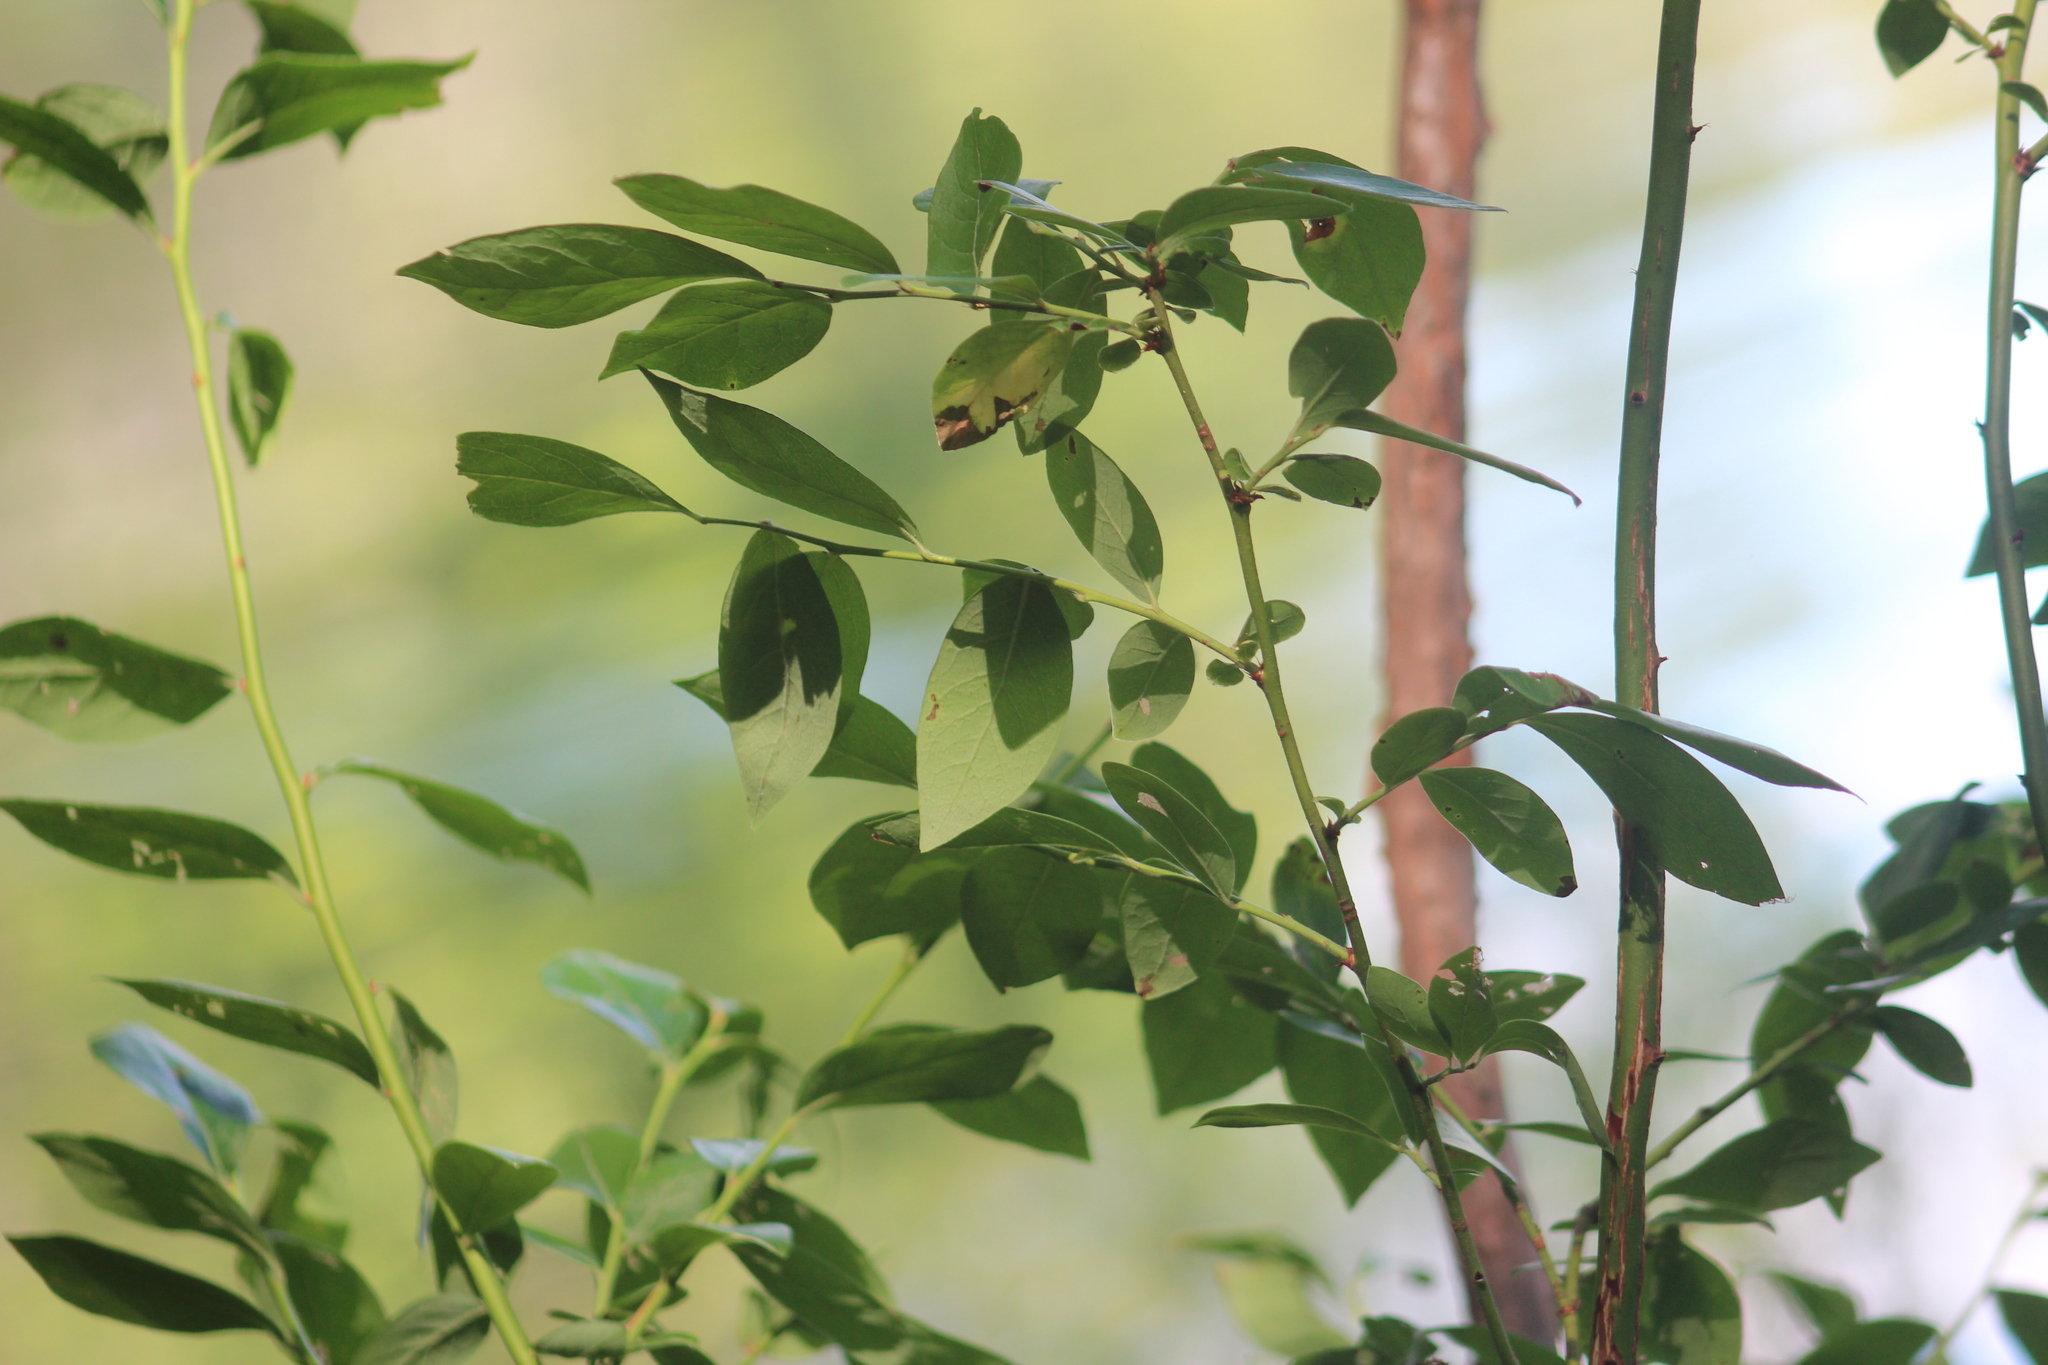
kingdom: Plantae
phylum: Tracheophyta
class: Magnoliopsida
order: Ericales
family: Ericaceae
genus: Vaccinium
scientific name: Vaccinium corymbosum
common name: Blueberry
